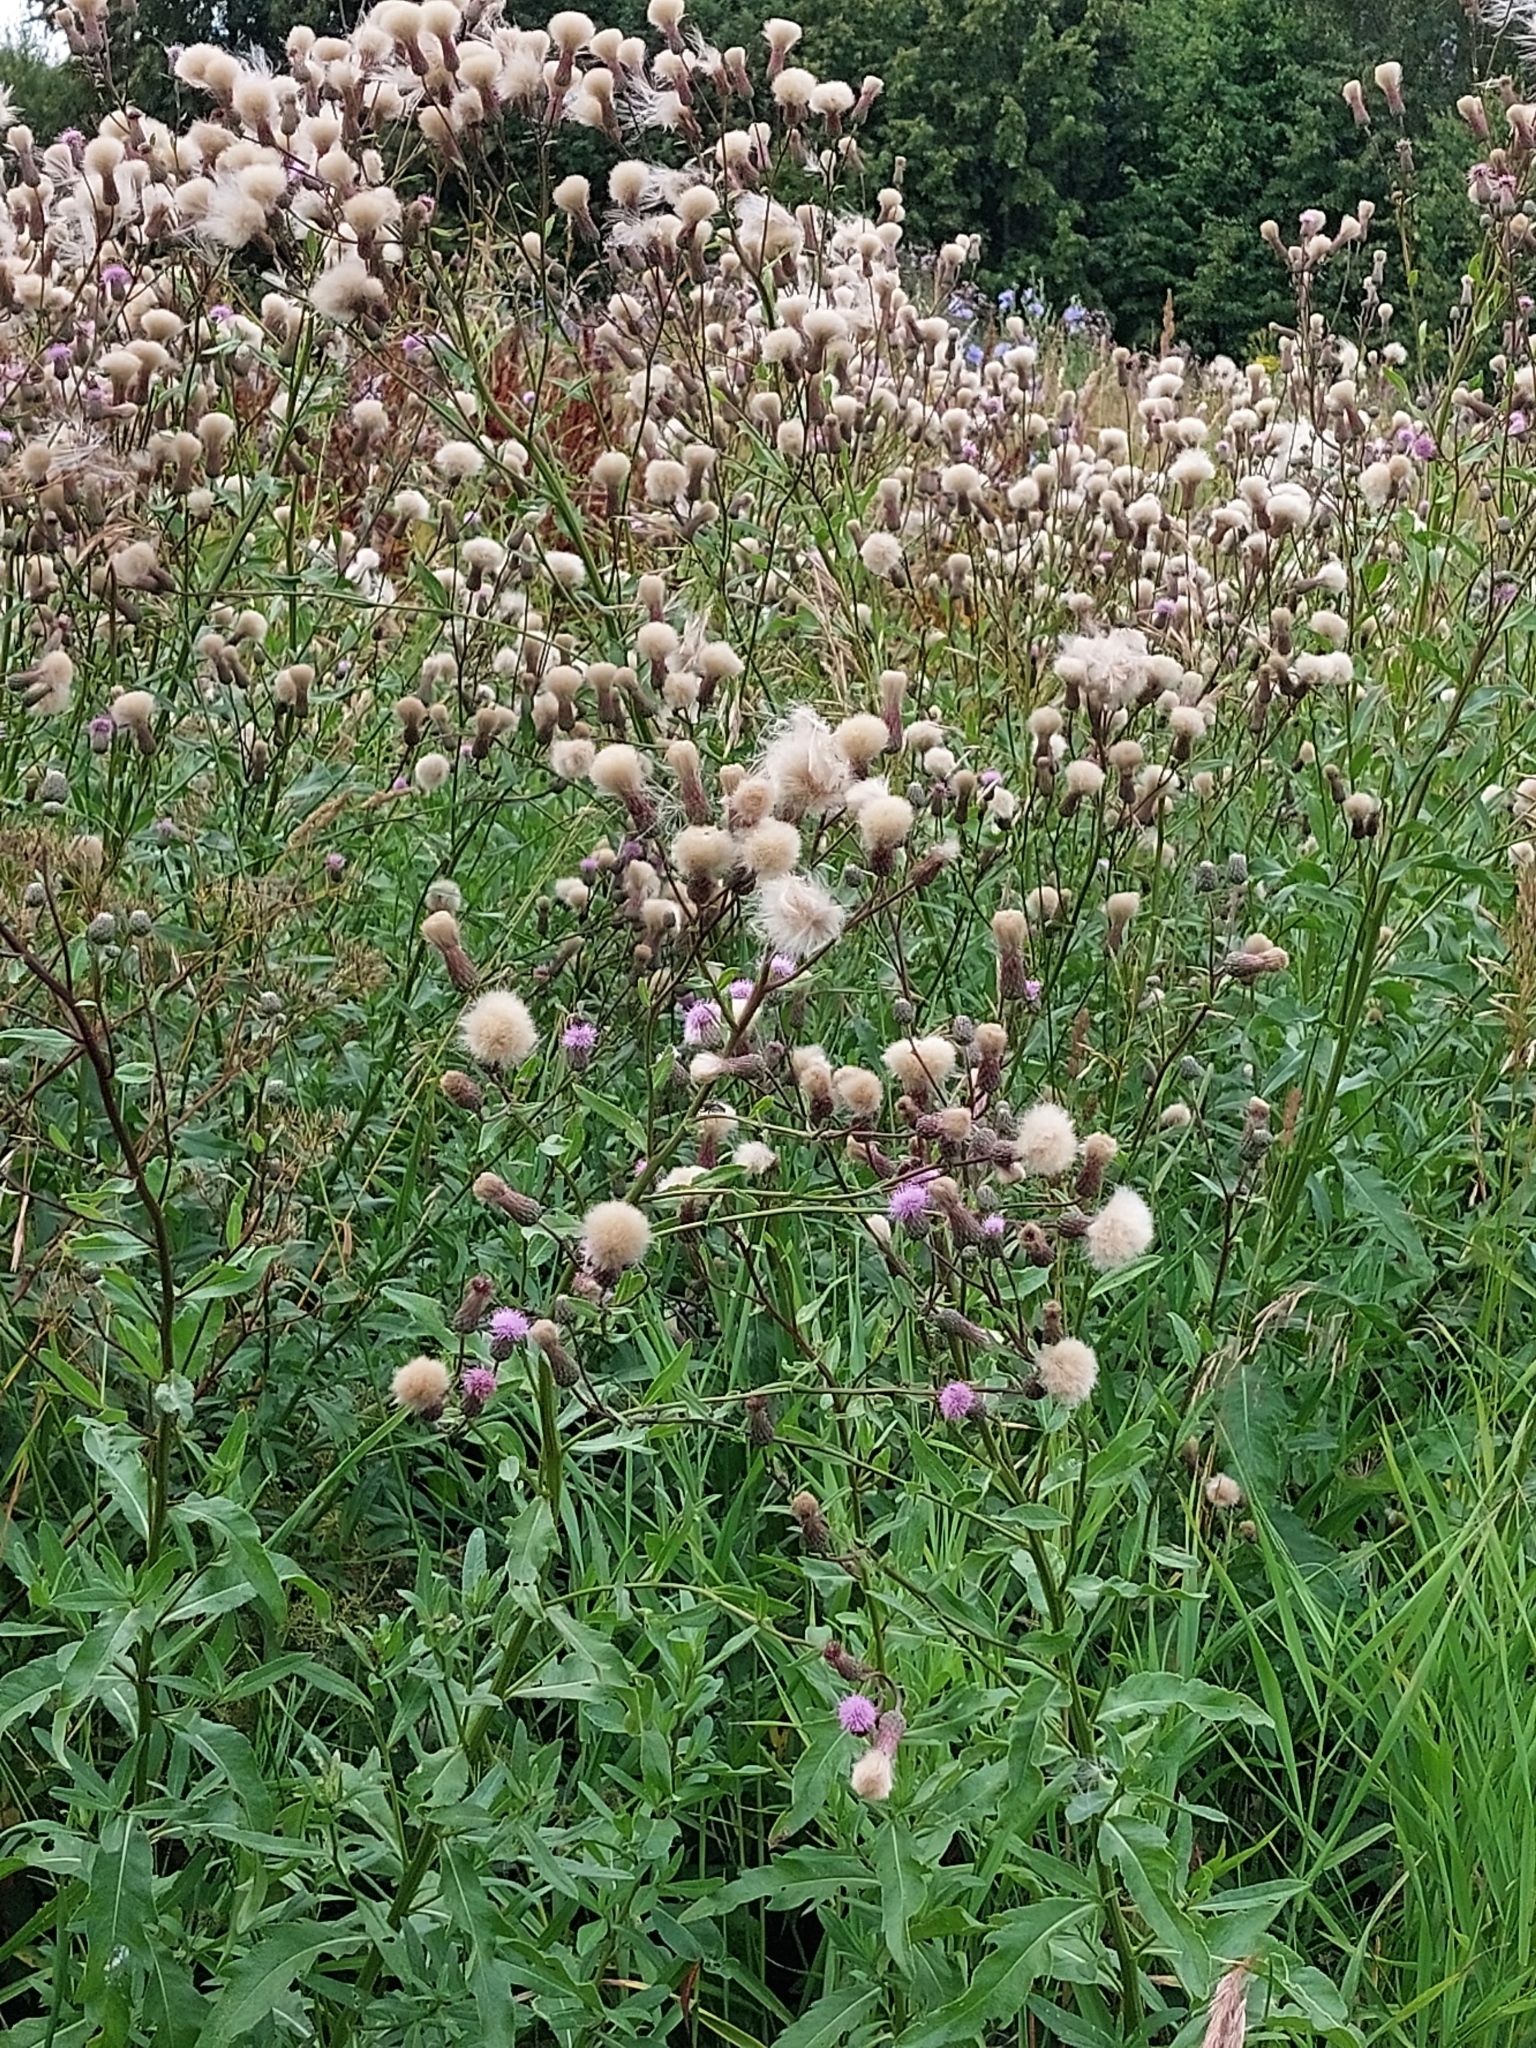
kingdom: Plantae
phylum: Tracheophyta
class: Magnoliopsida
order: Asterales
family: Asteraceae
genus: Cirsium
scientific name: Cirsium arvense
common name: Creeping thistle
